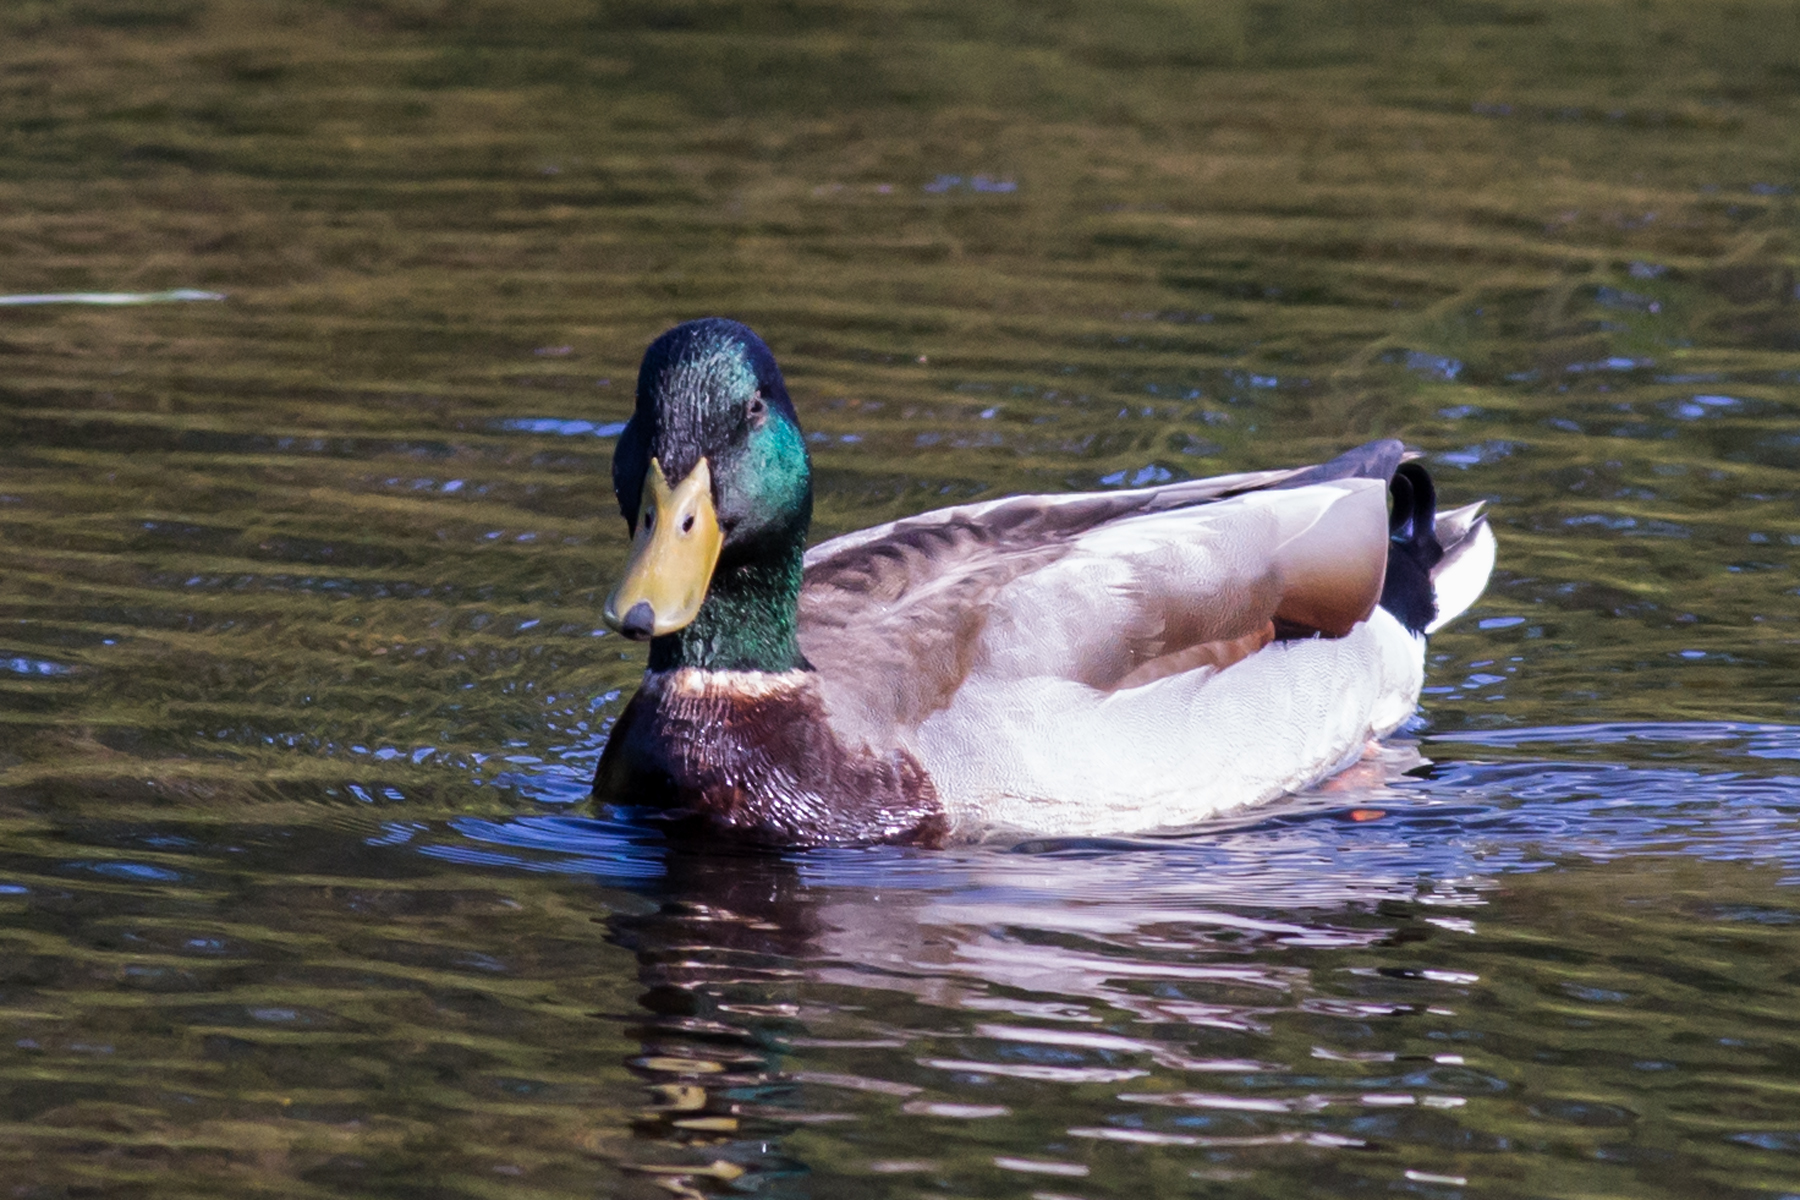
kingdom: Animalia
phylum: Chordata
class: Aves
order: Anseriformes
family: Anatidae
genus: Anas
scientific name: Anas platyrhynchos
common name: Mallard
